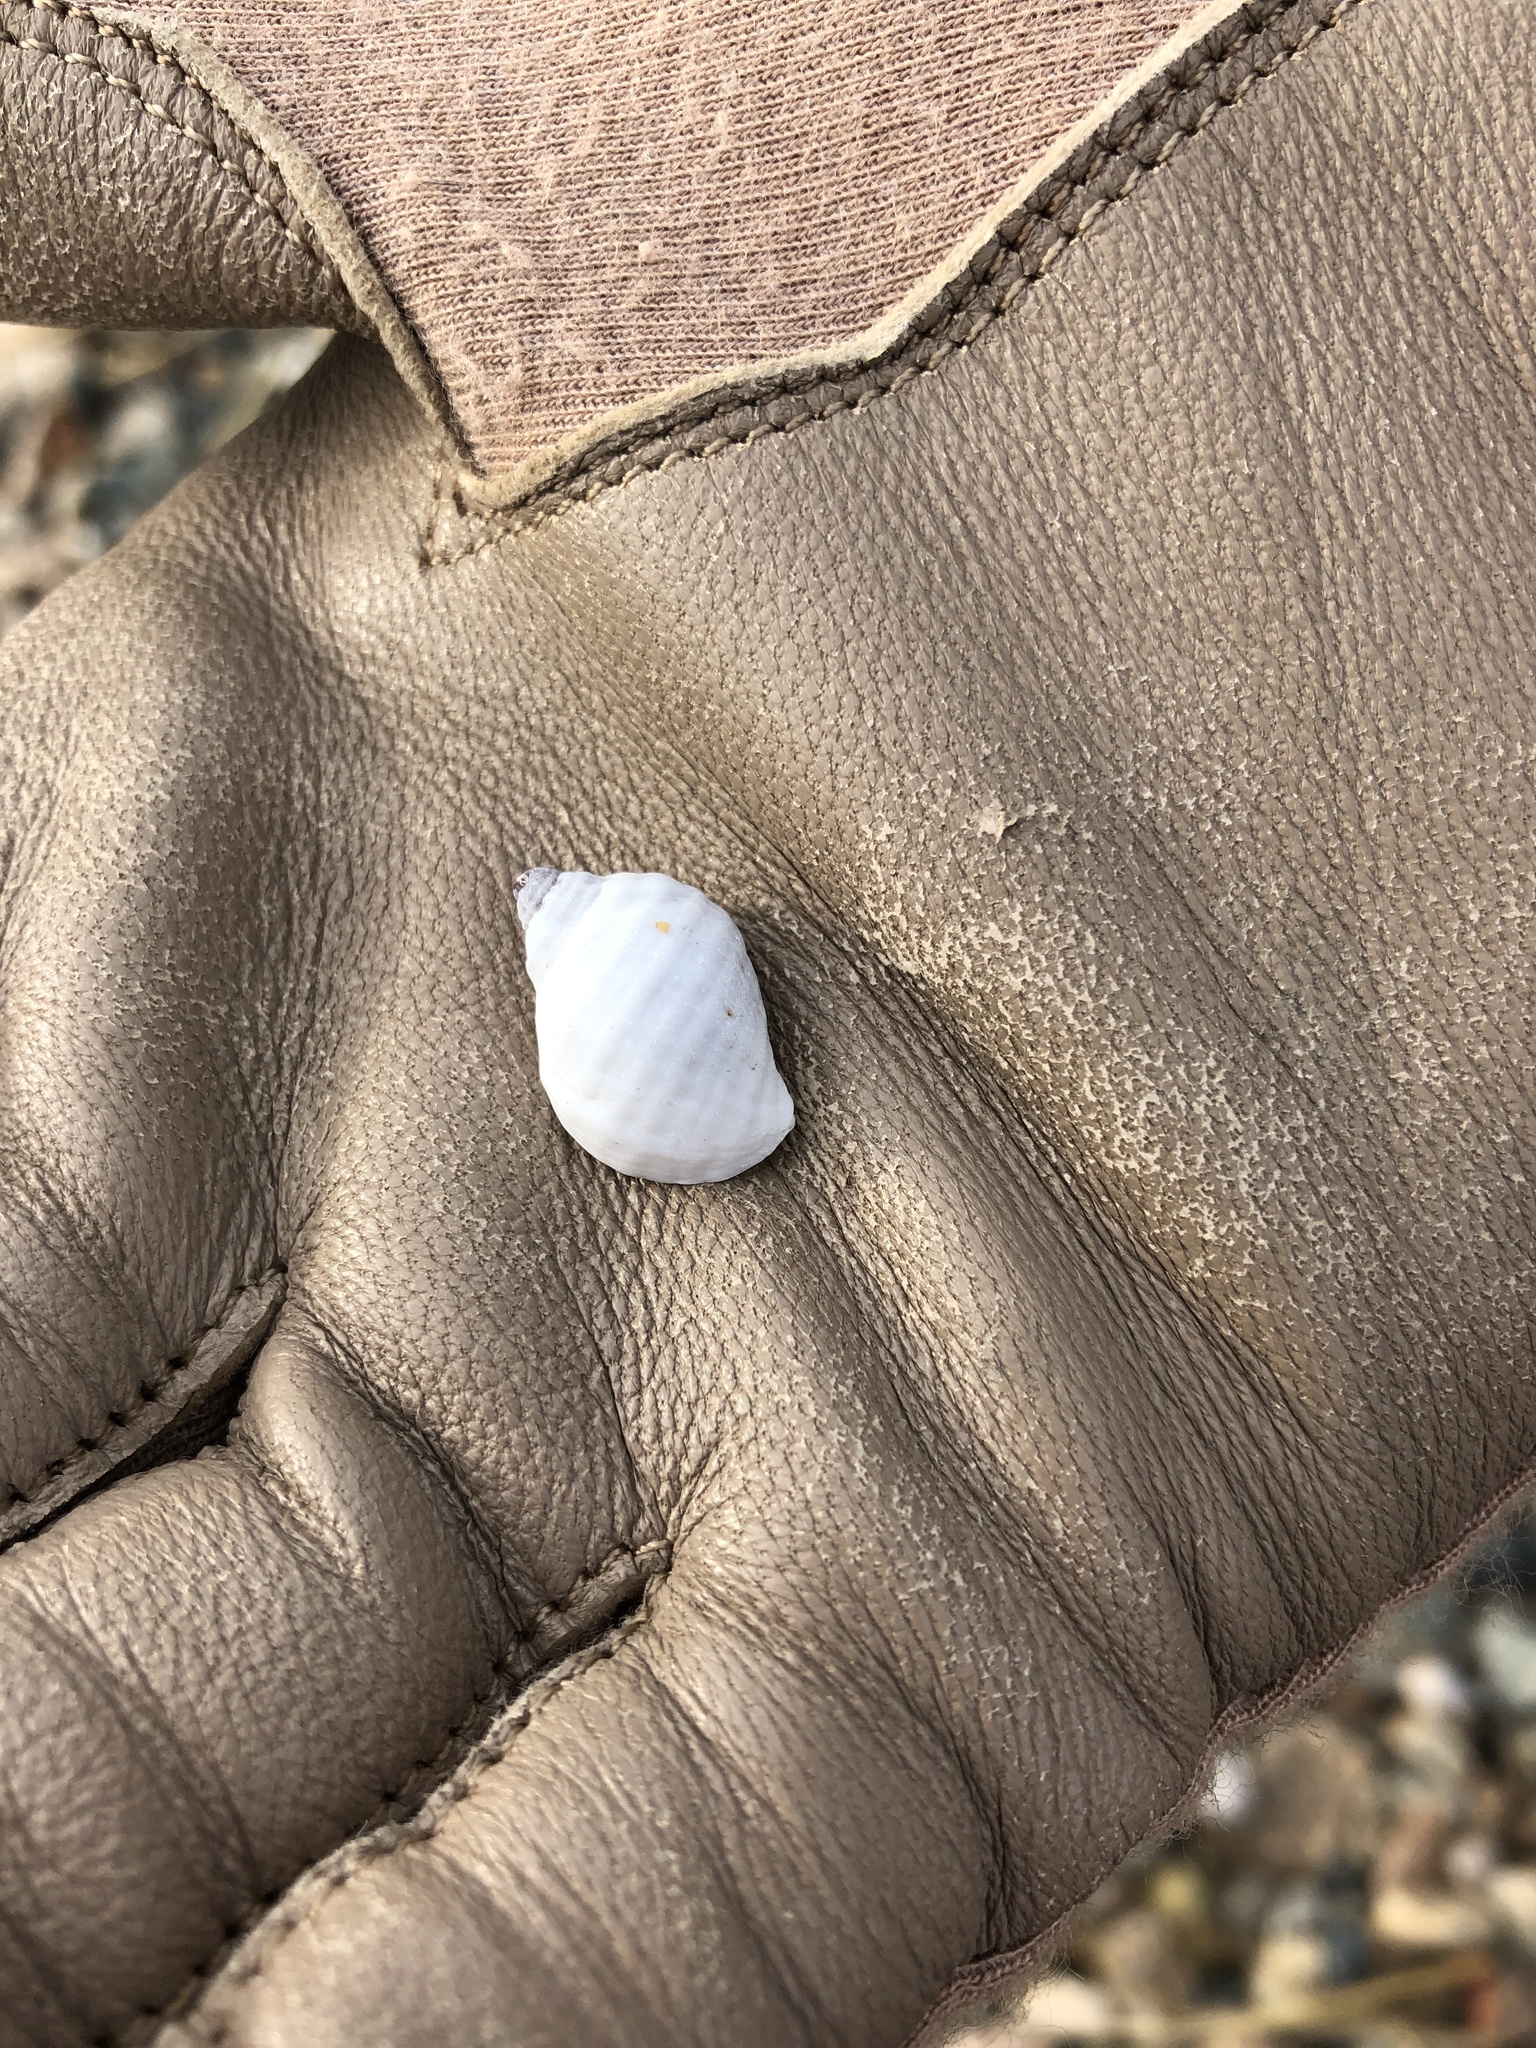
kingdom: Animalia
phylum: Mollusca
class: Gastropoda
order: Neogastropoda
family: Muricidae
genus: Nucella
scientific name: Nucella lapillus
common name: Dog whelk
